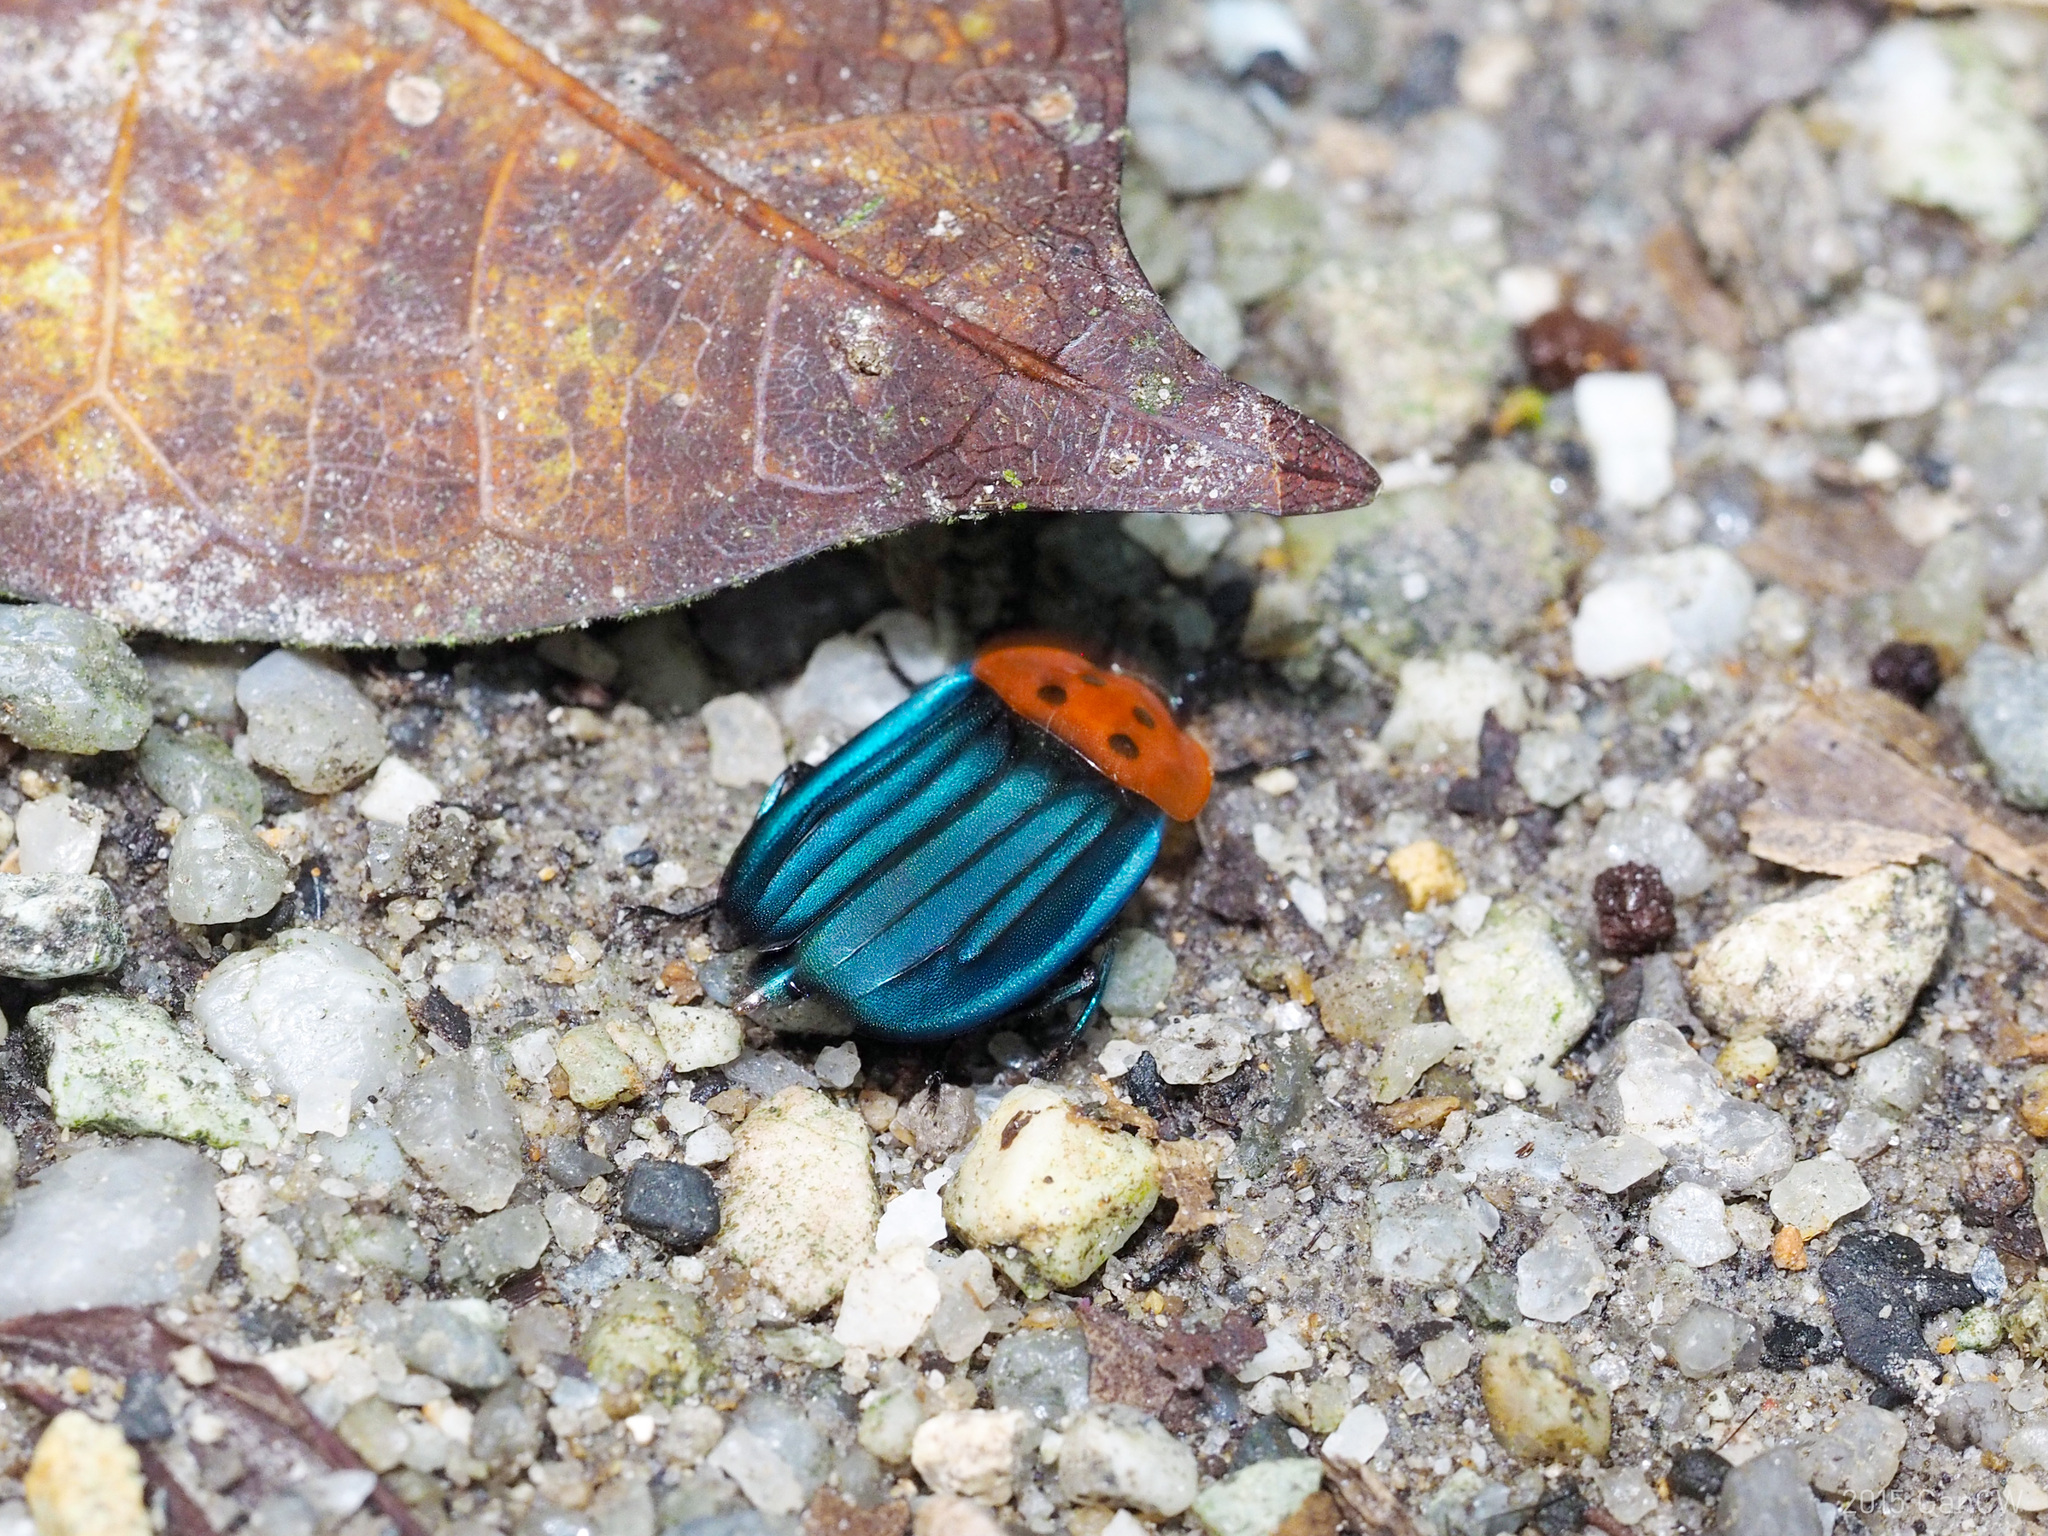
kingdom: Animalia
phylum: Arthropoda
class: Insecta
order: Coleoptera
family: Staphylinidae
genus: Necrophila
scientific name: Necrophila formosa
